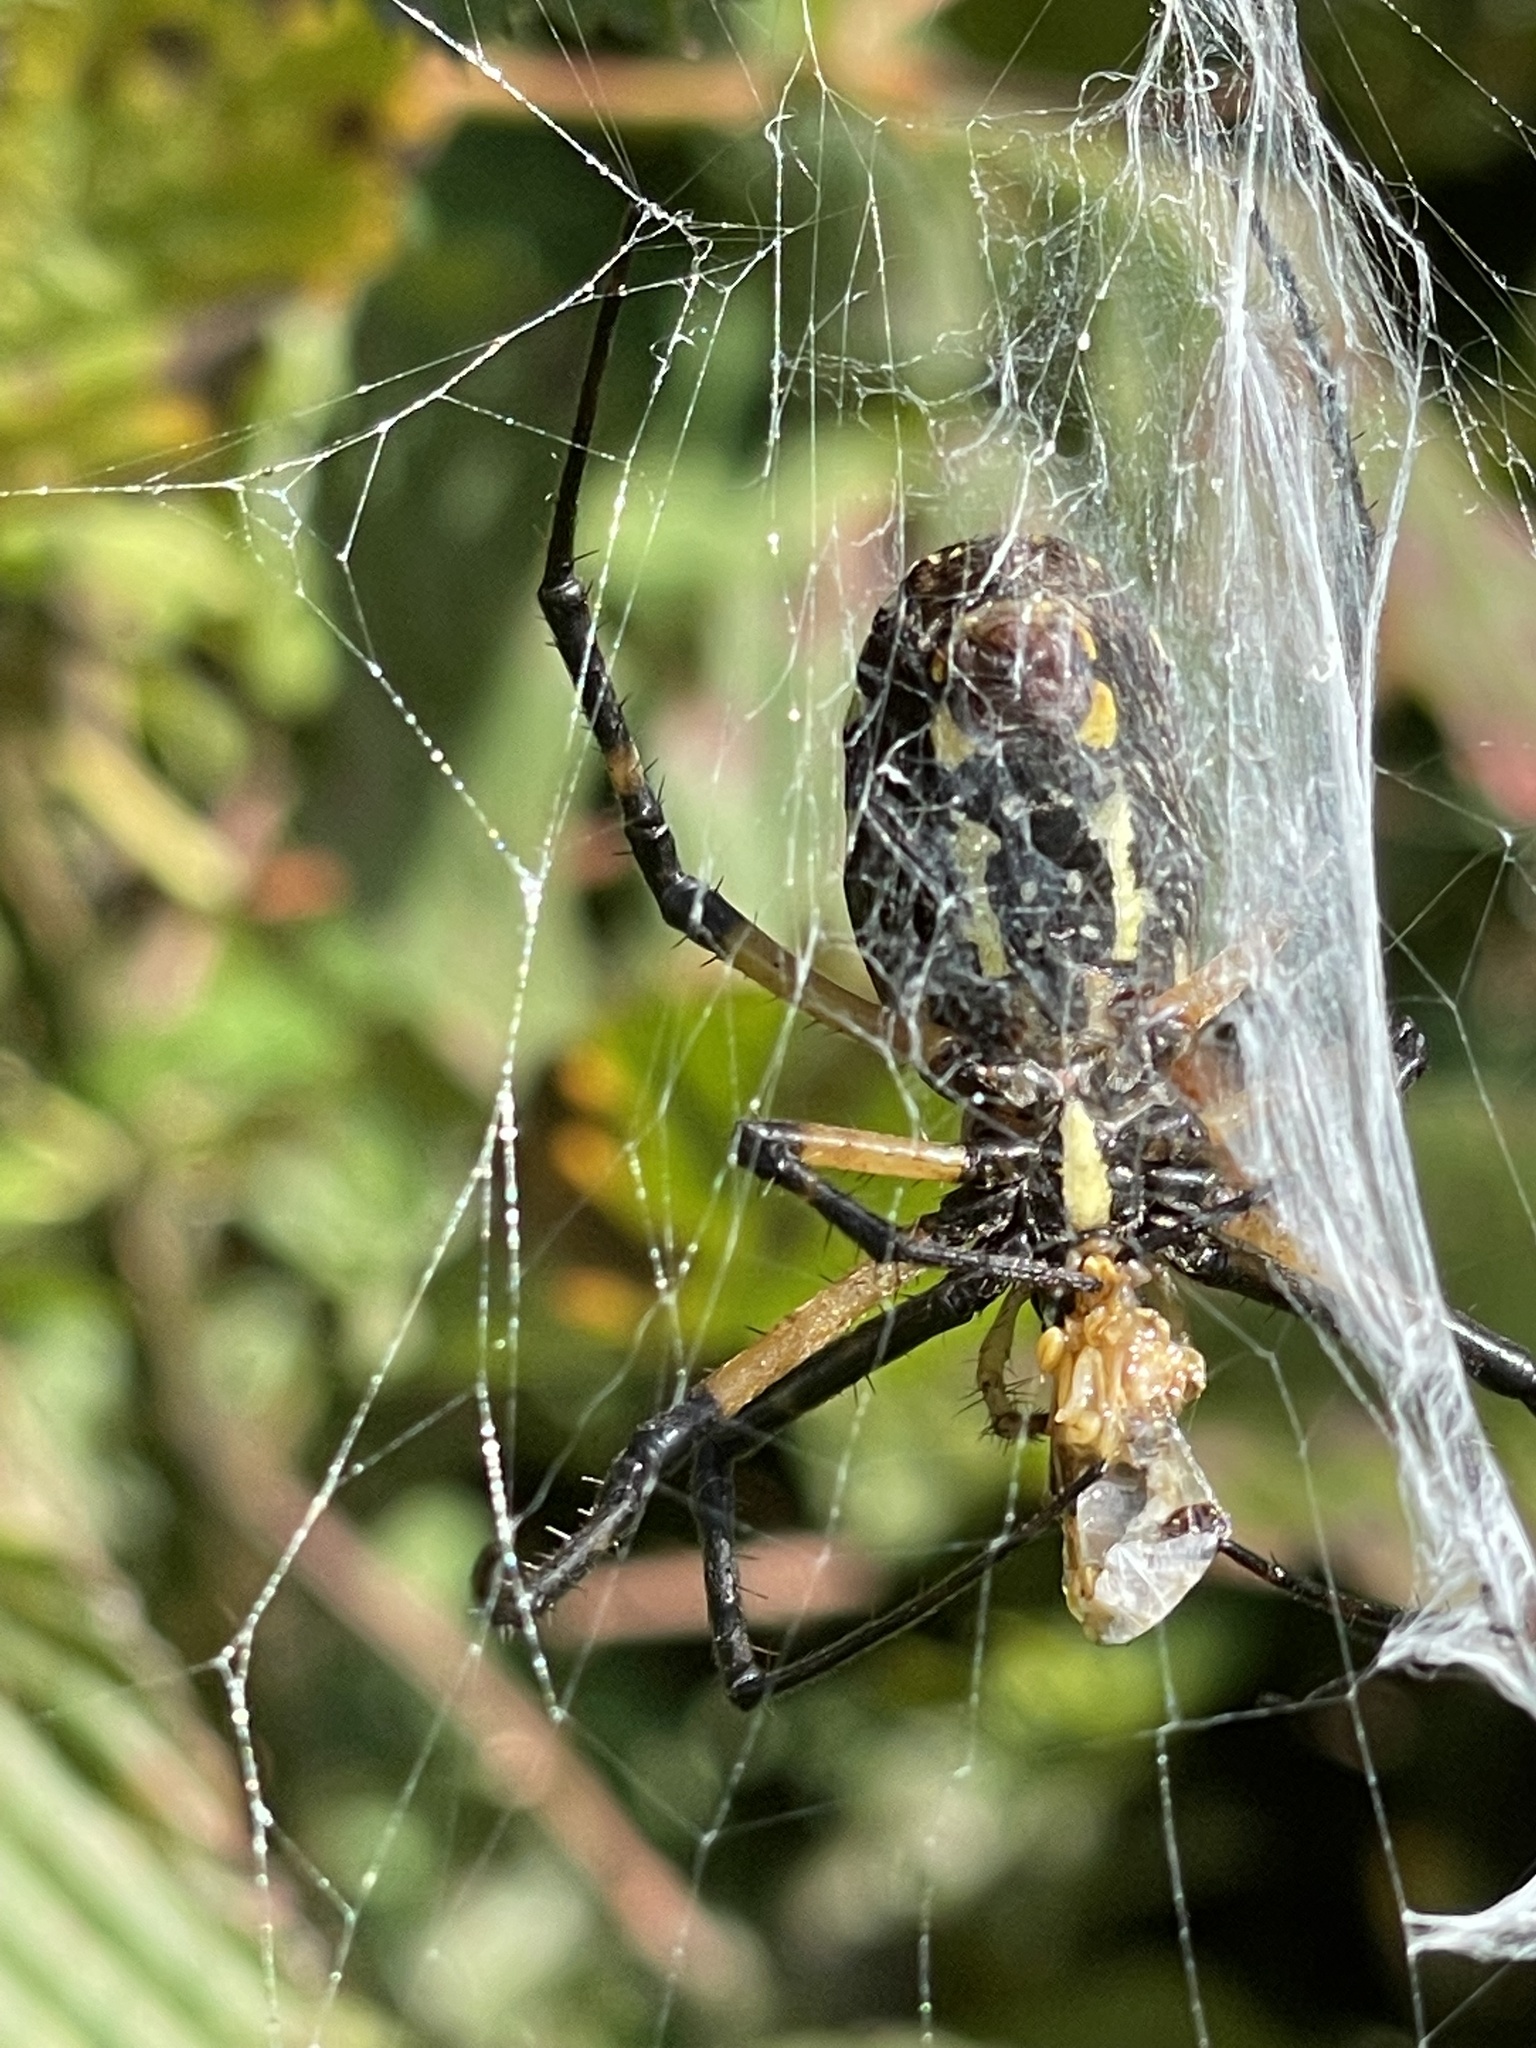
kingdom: Animalia
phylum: Arthropoda
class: Arachnida
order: Araneae
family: Araneidae
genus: Argiope
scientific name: Argiope aurantia
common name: Orb weavers
